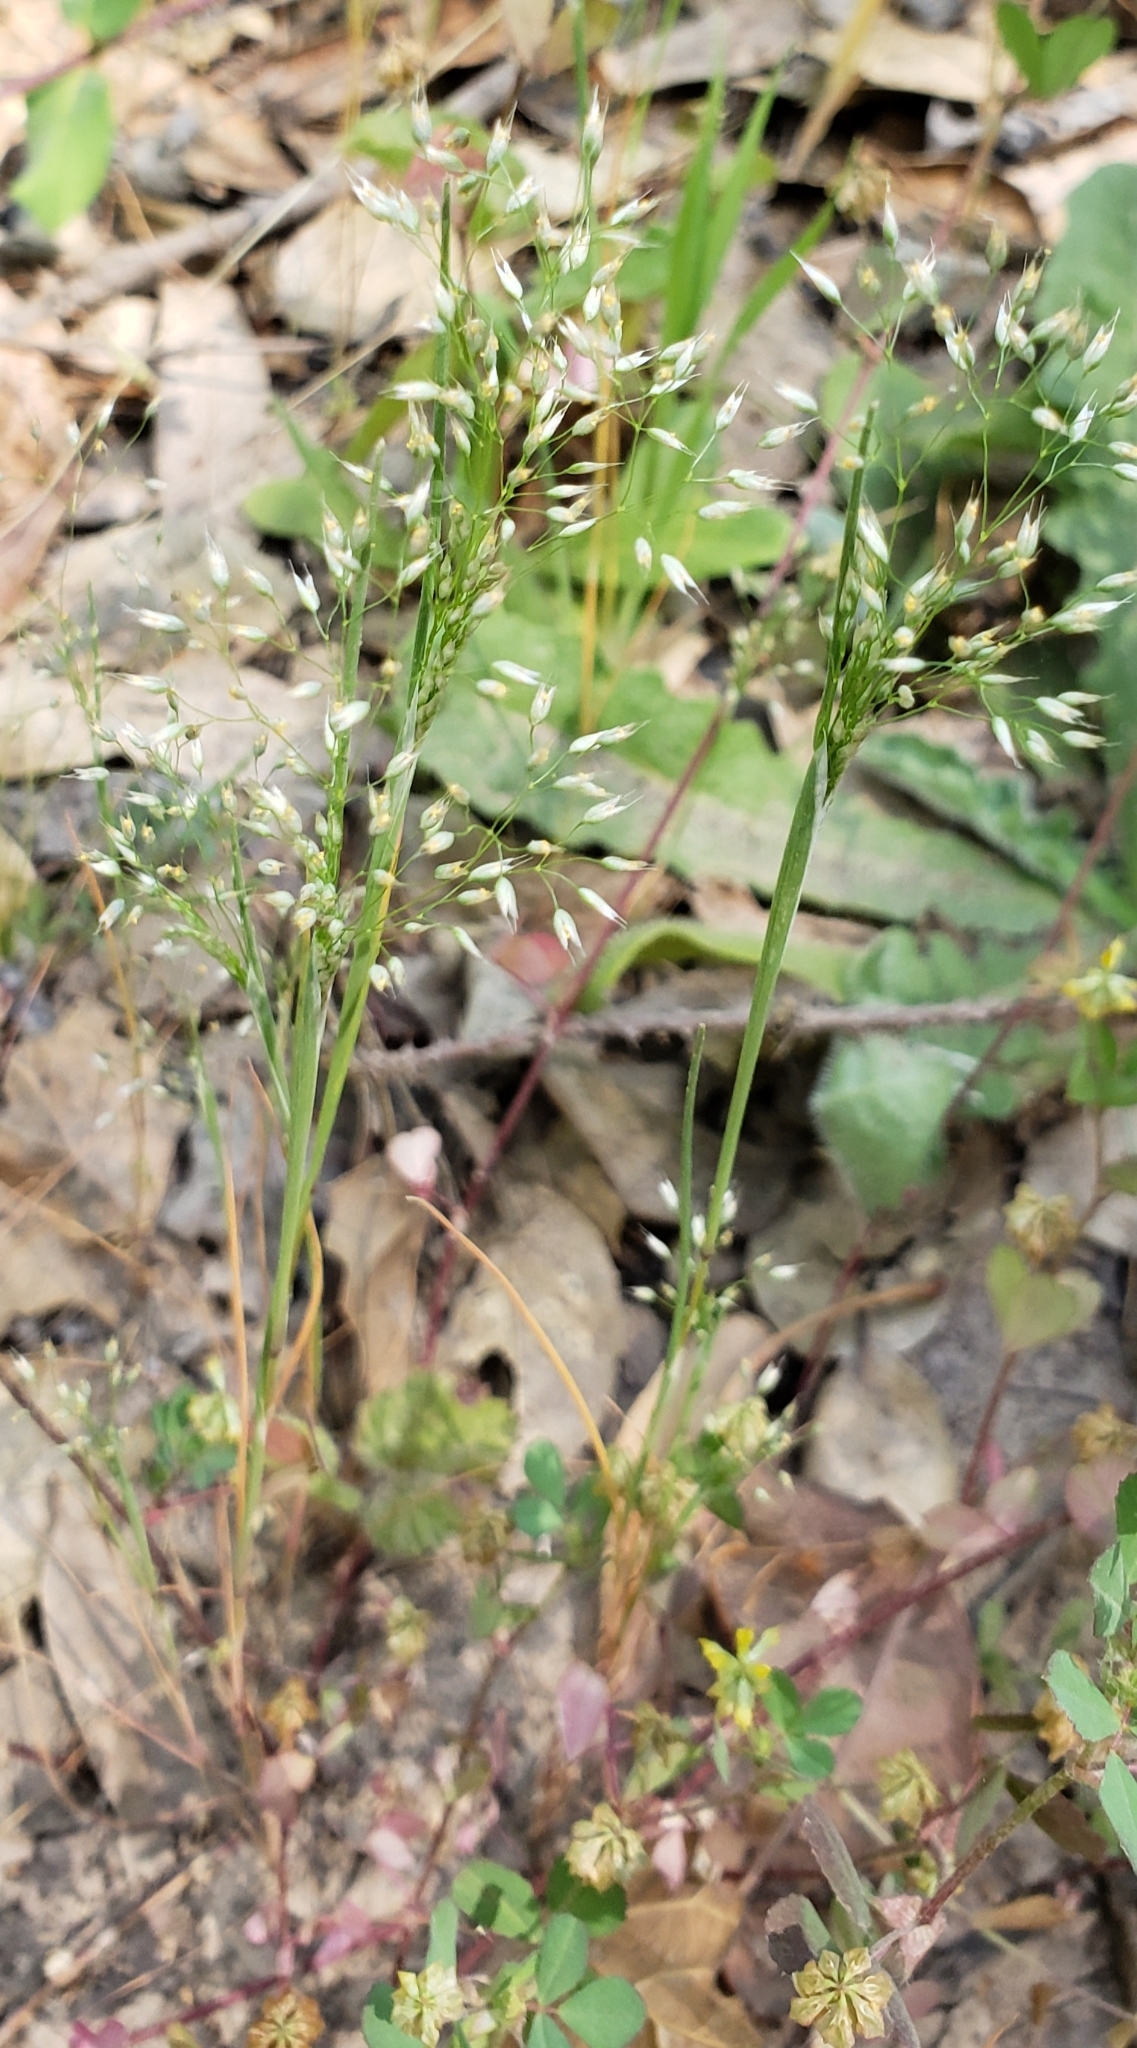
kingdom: Plantae
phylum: Tracheophyta
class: Liliopsida
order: Poales
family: Poaceae
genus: Aira
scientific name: Aira caryophyllea
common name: Silver hairgrass
